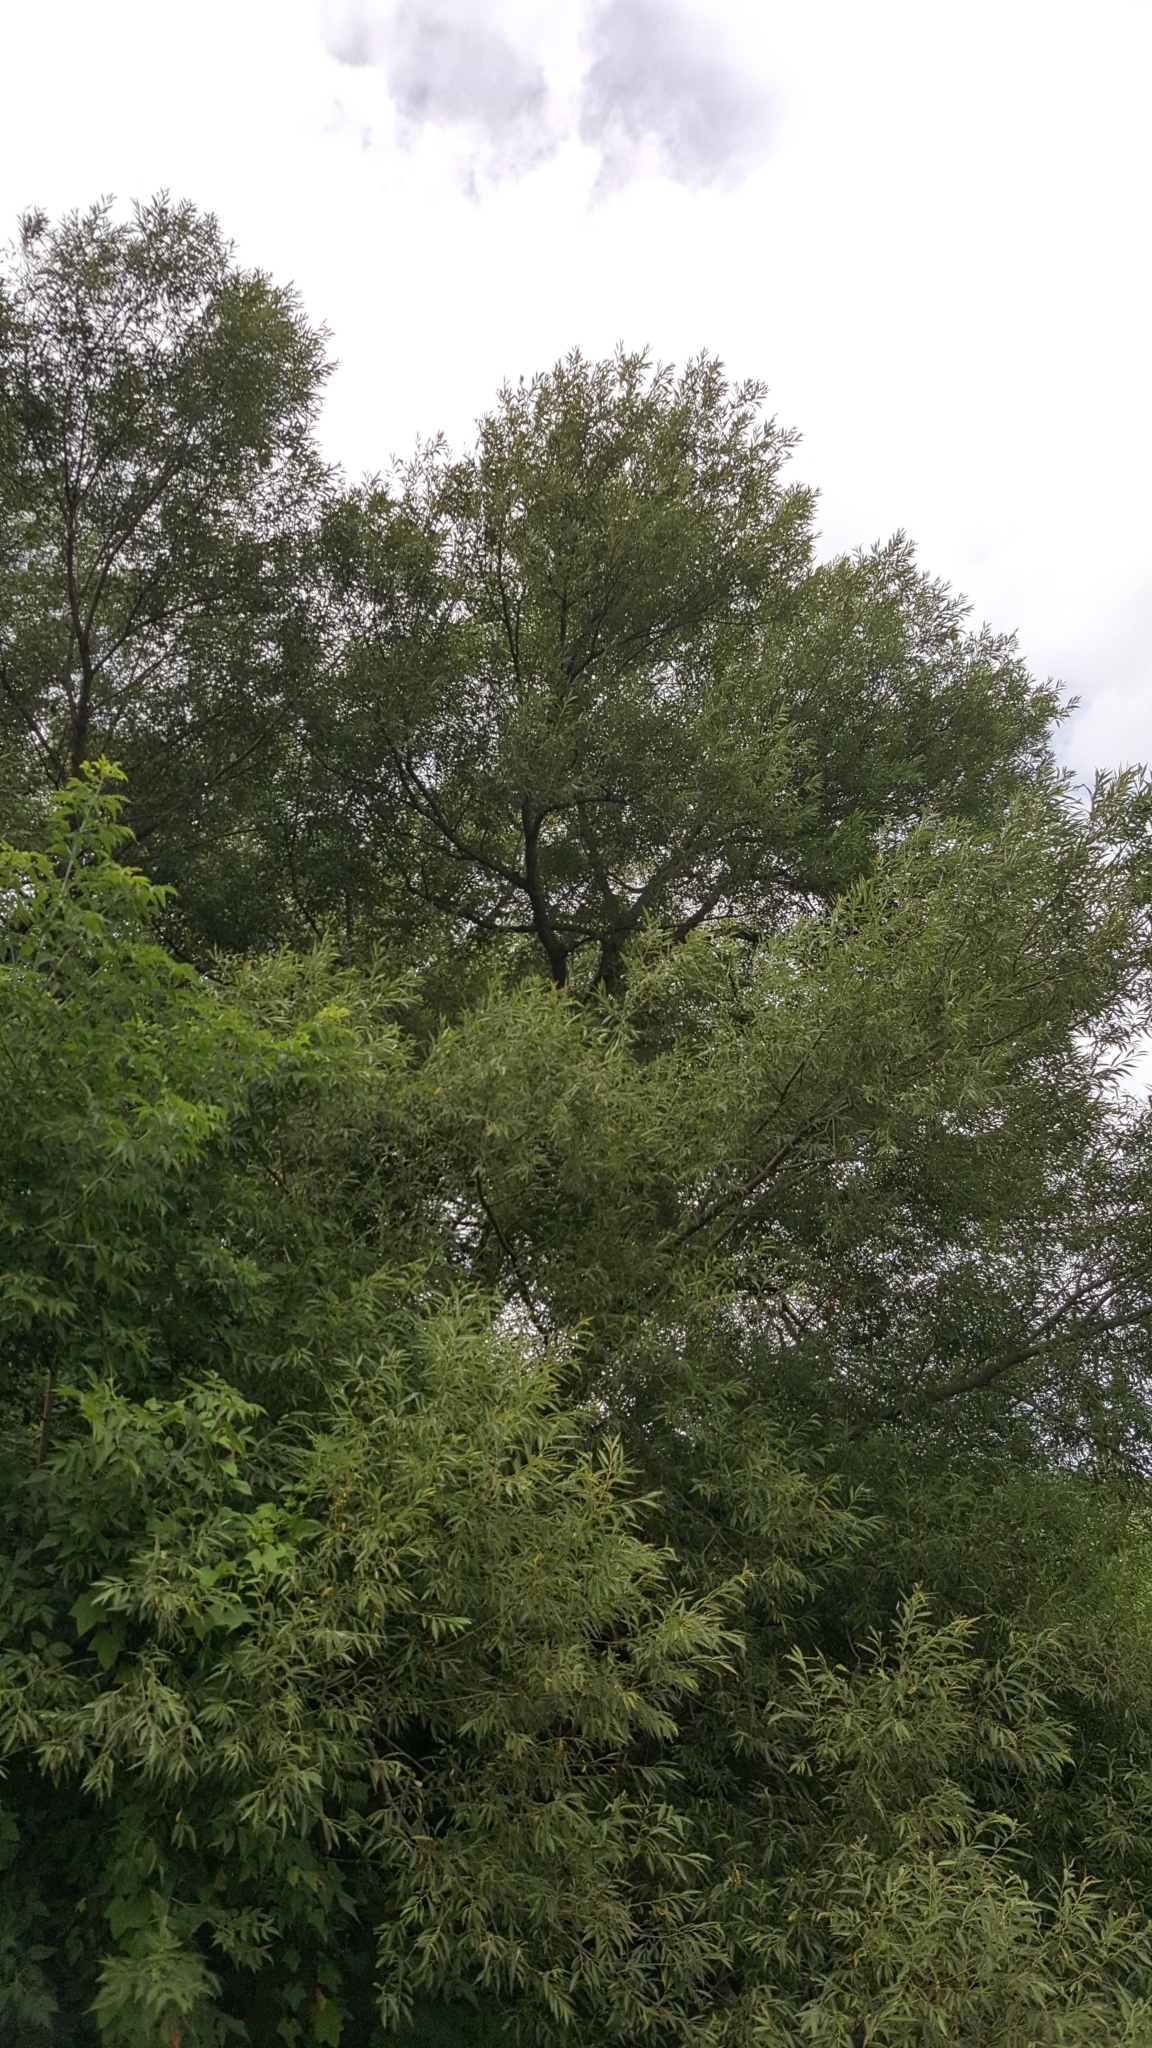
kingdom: Plantae
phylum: Tracheophyta
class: Magnoliopsida
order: Malpighiales
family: Salicaceae
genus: Salix
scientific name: Salix nigra
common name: Black willow
